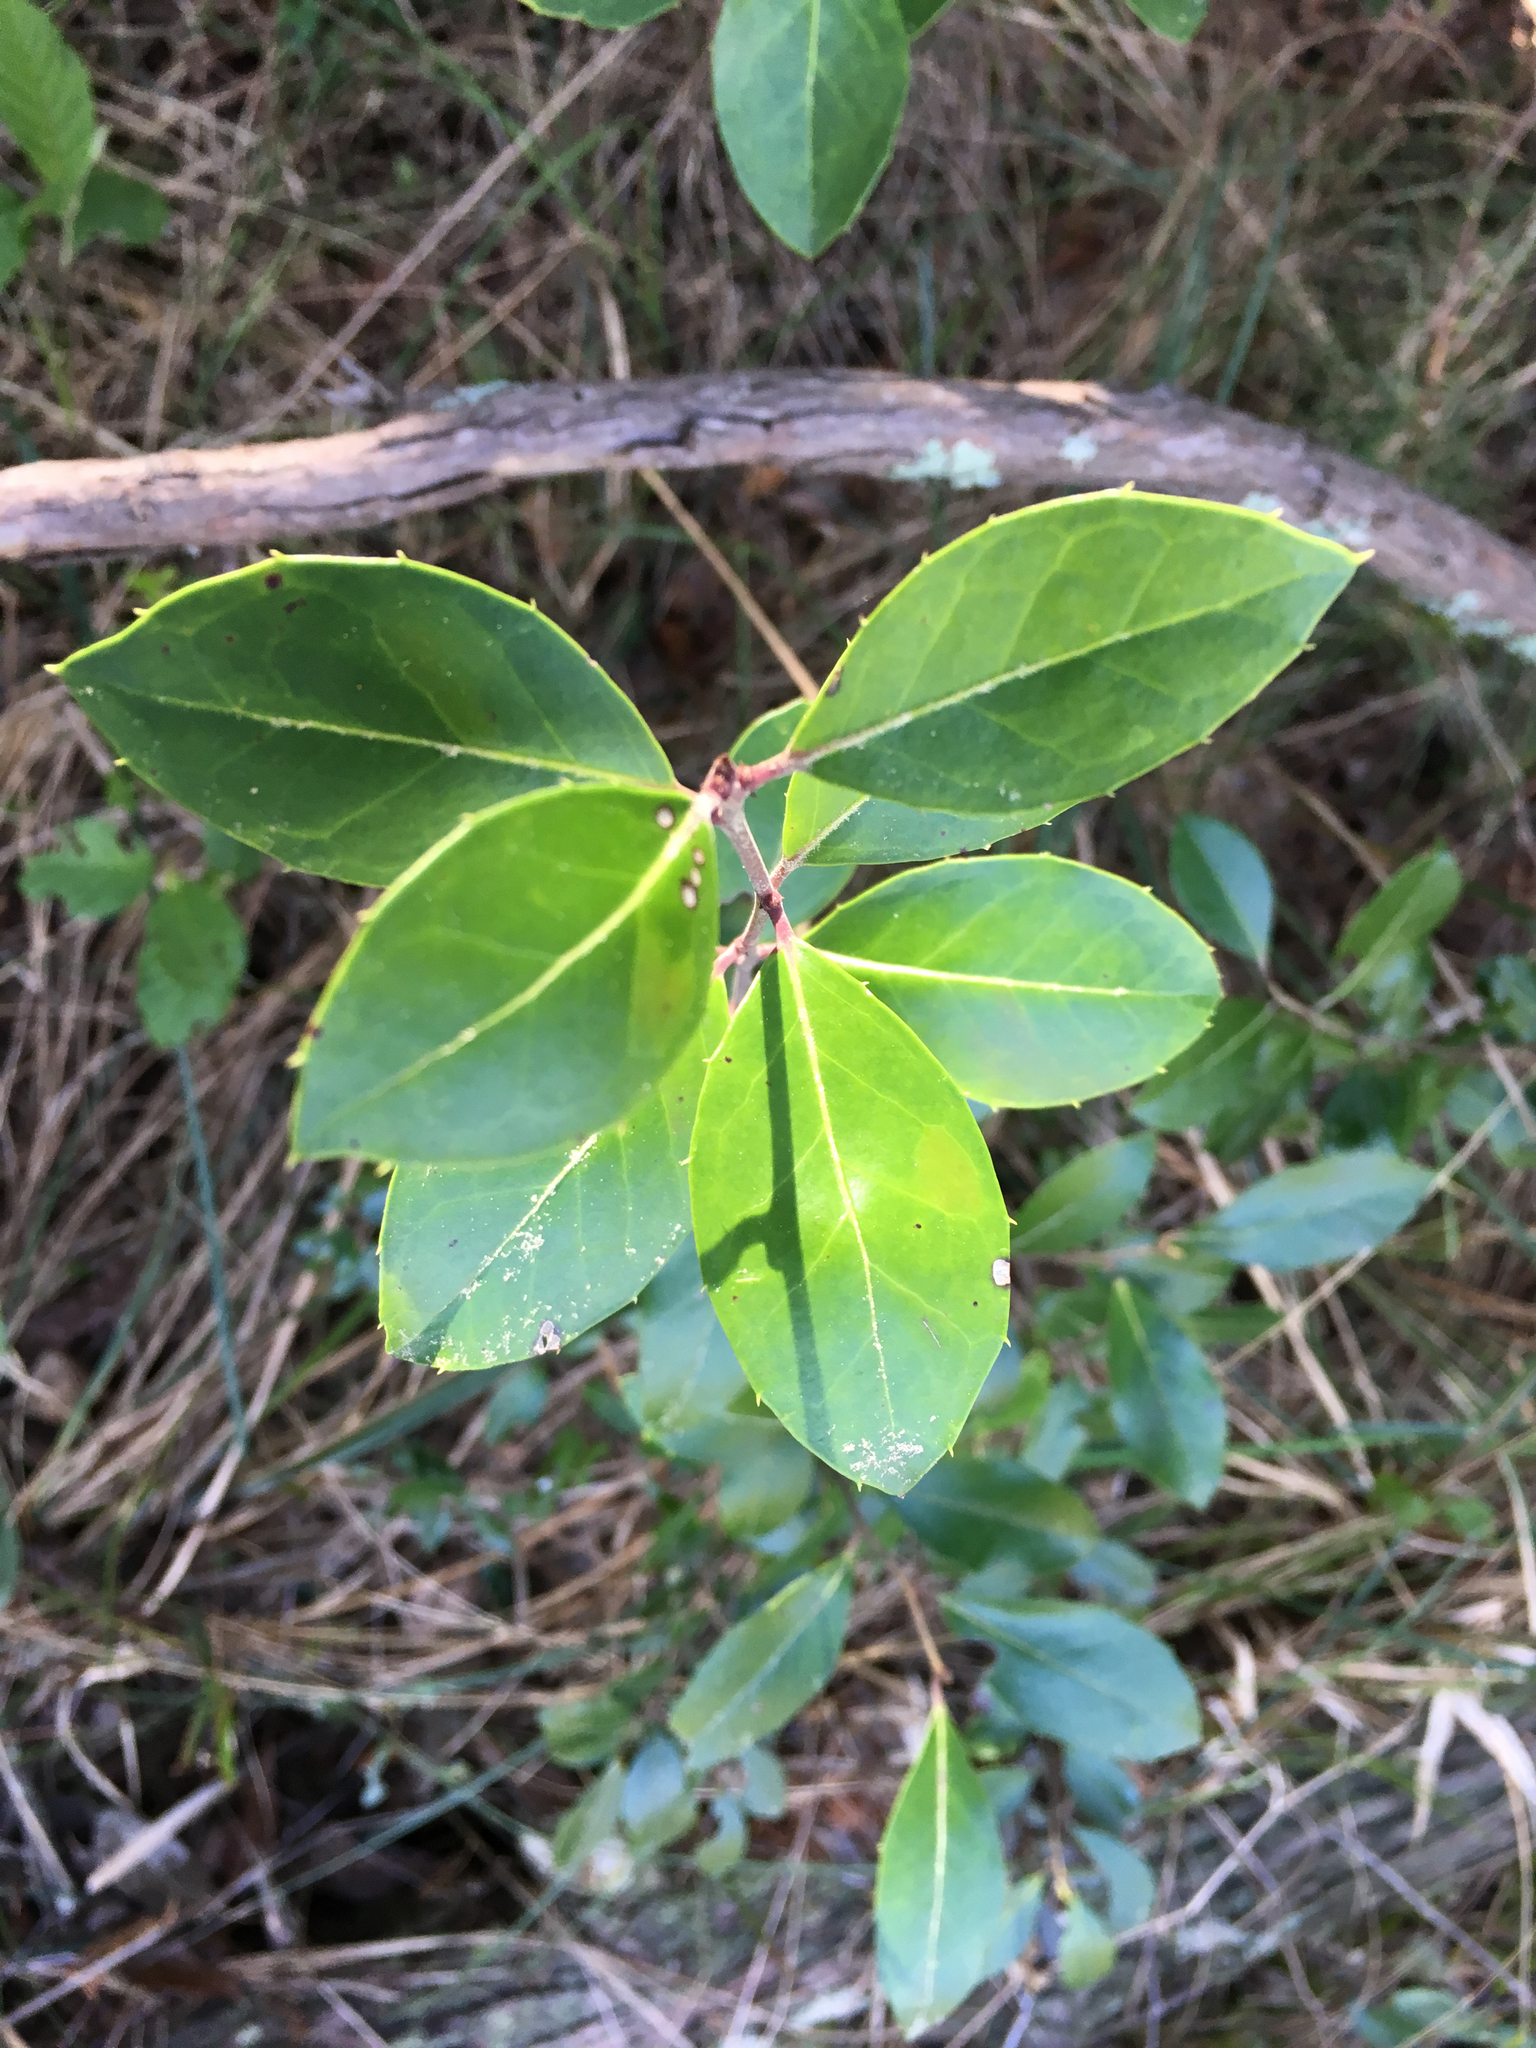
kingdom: Plantae
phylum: Tracheophyta
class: Magnoliopsida
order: Aquifoliales
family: Aquifoliaceae
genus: Ilex
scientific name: Ilex coriacea
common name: Sweet gallberry
